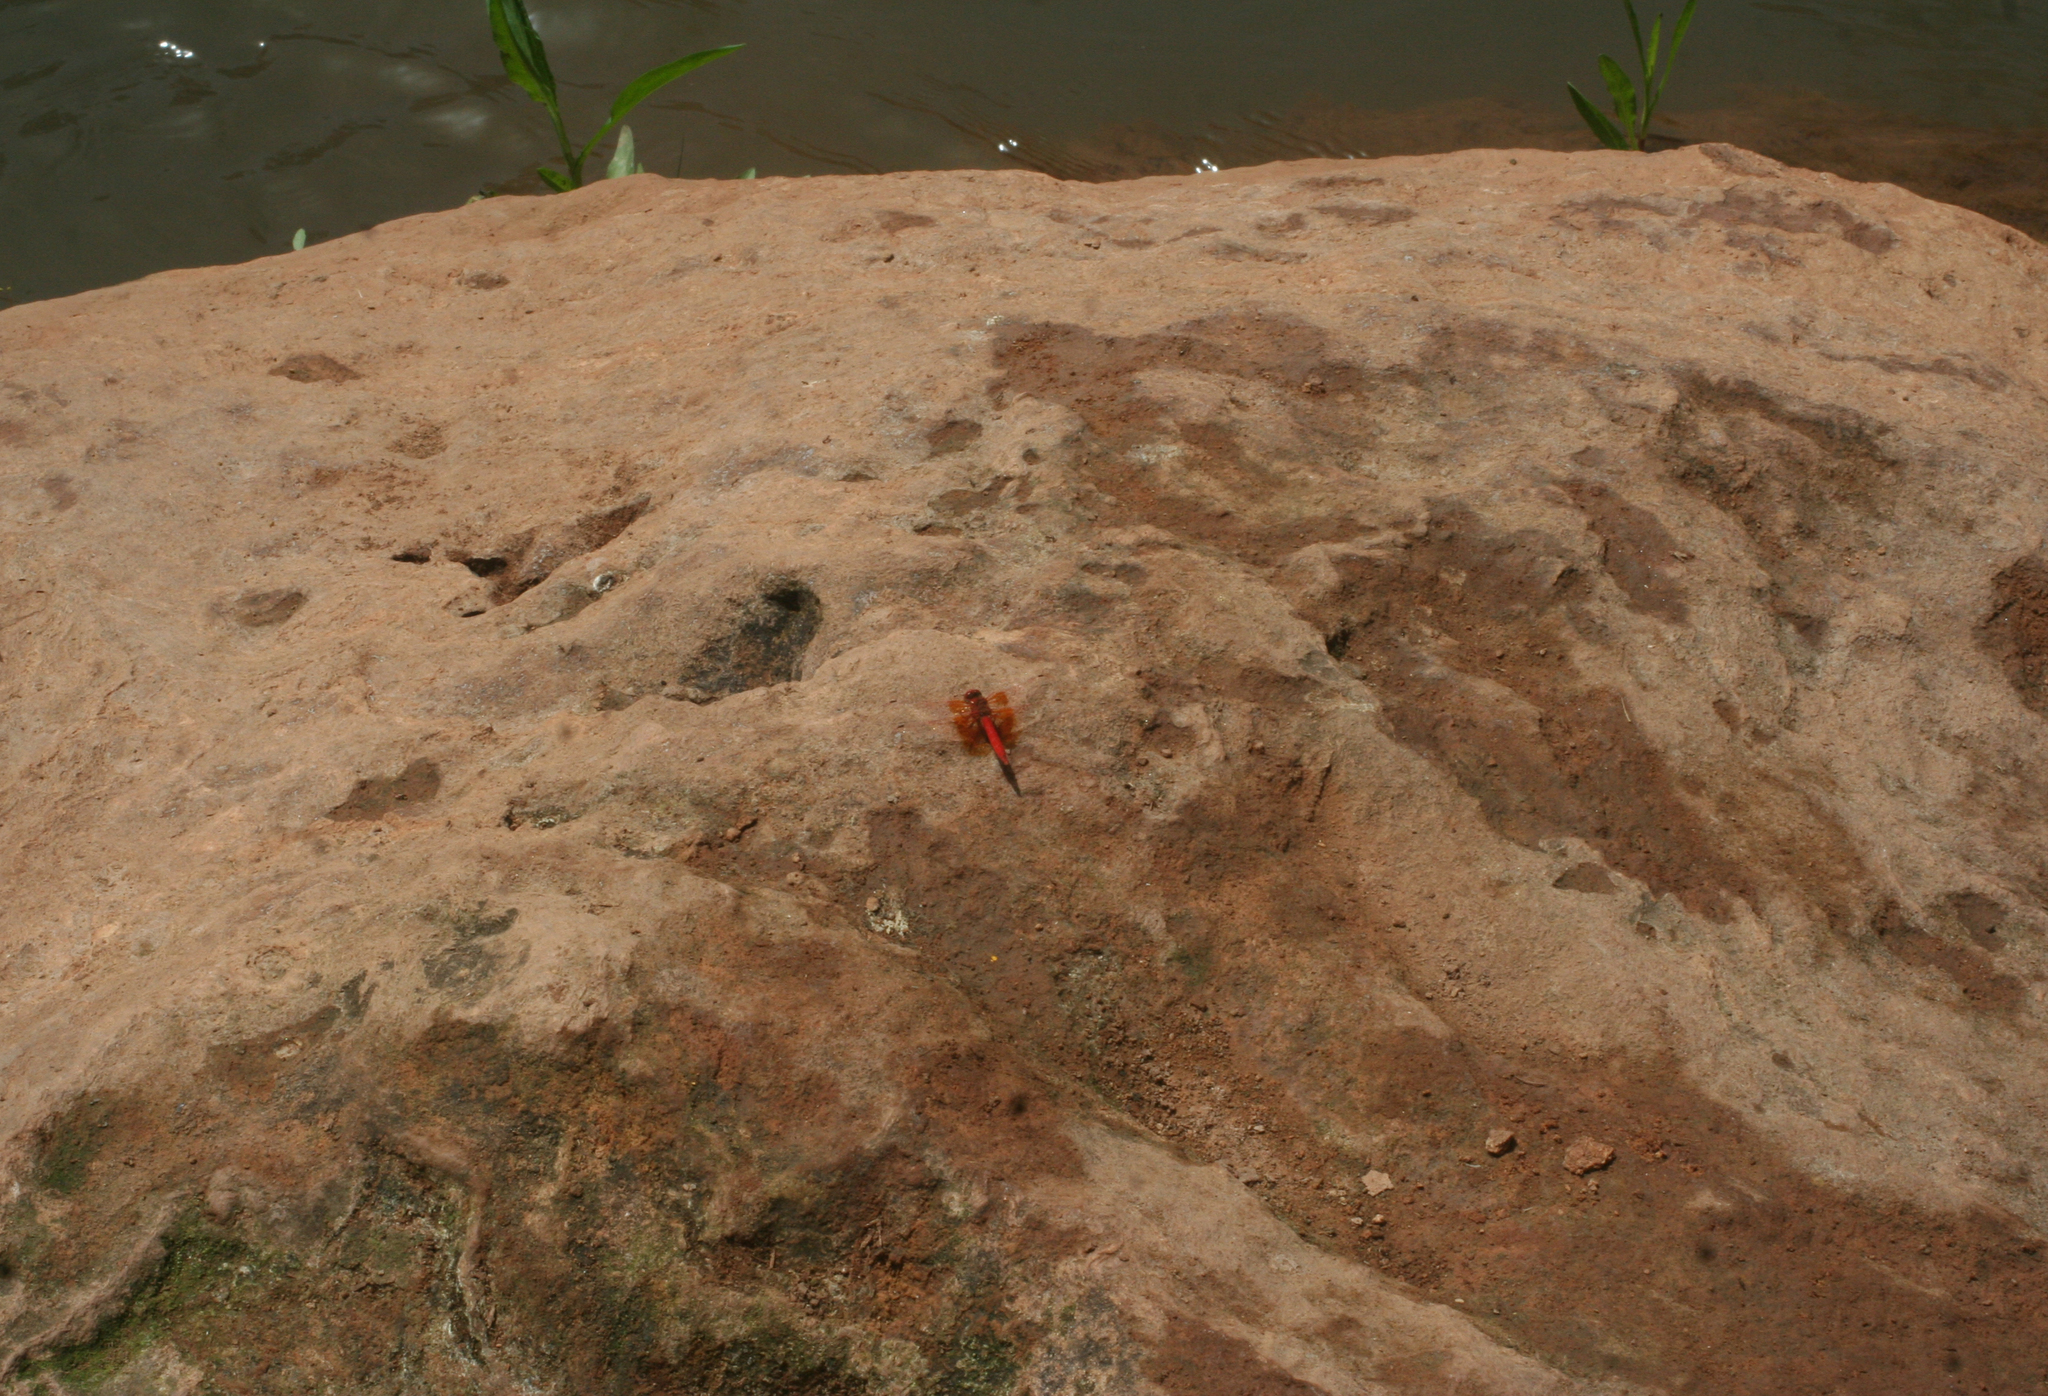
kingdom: Animalia
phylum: Arthropoda
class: Insecta
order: Odonata
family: Libellulidae
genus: Trithemis
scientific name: Trithemis kirbyi
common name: Kirby's dropwing
